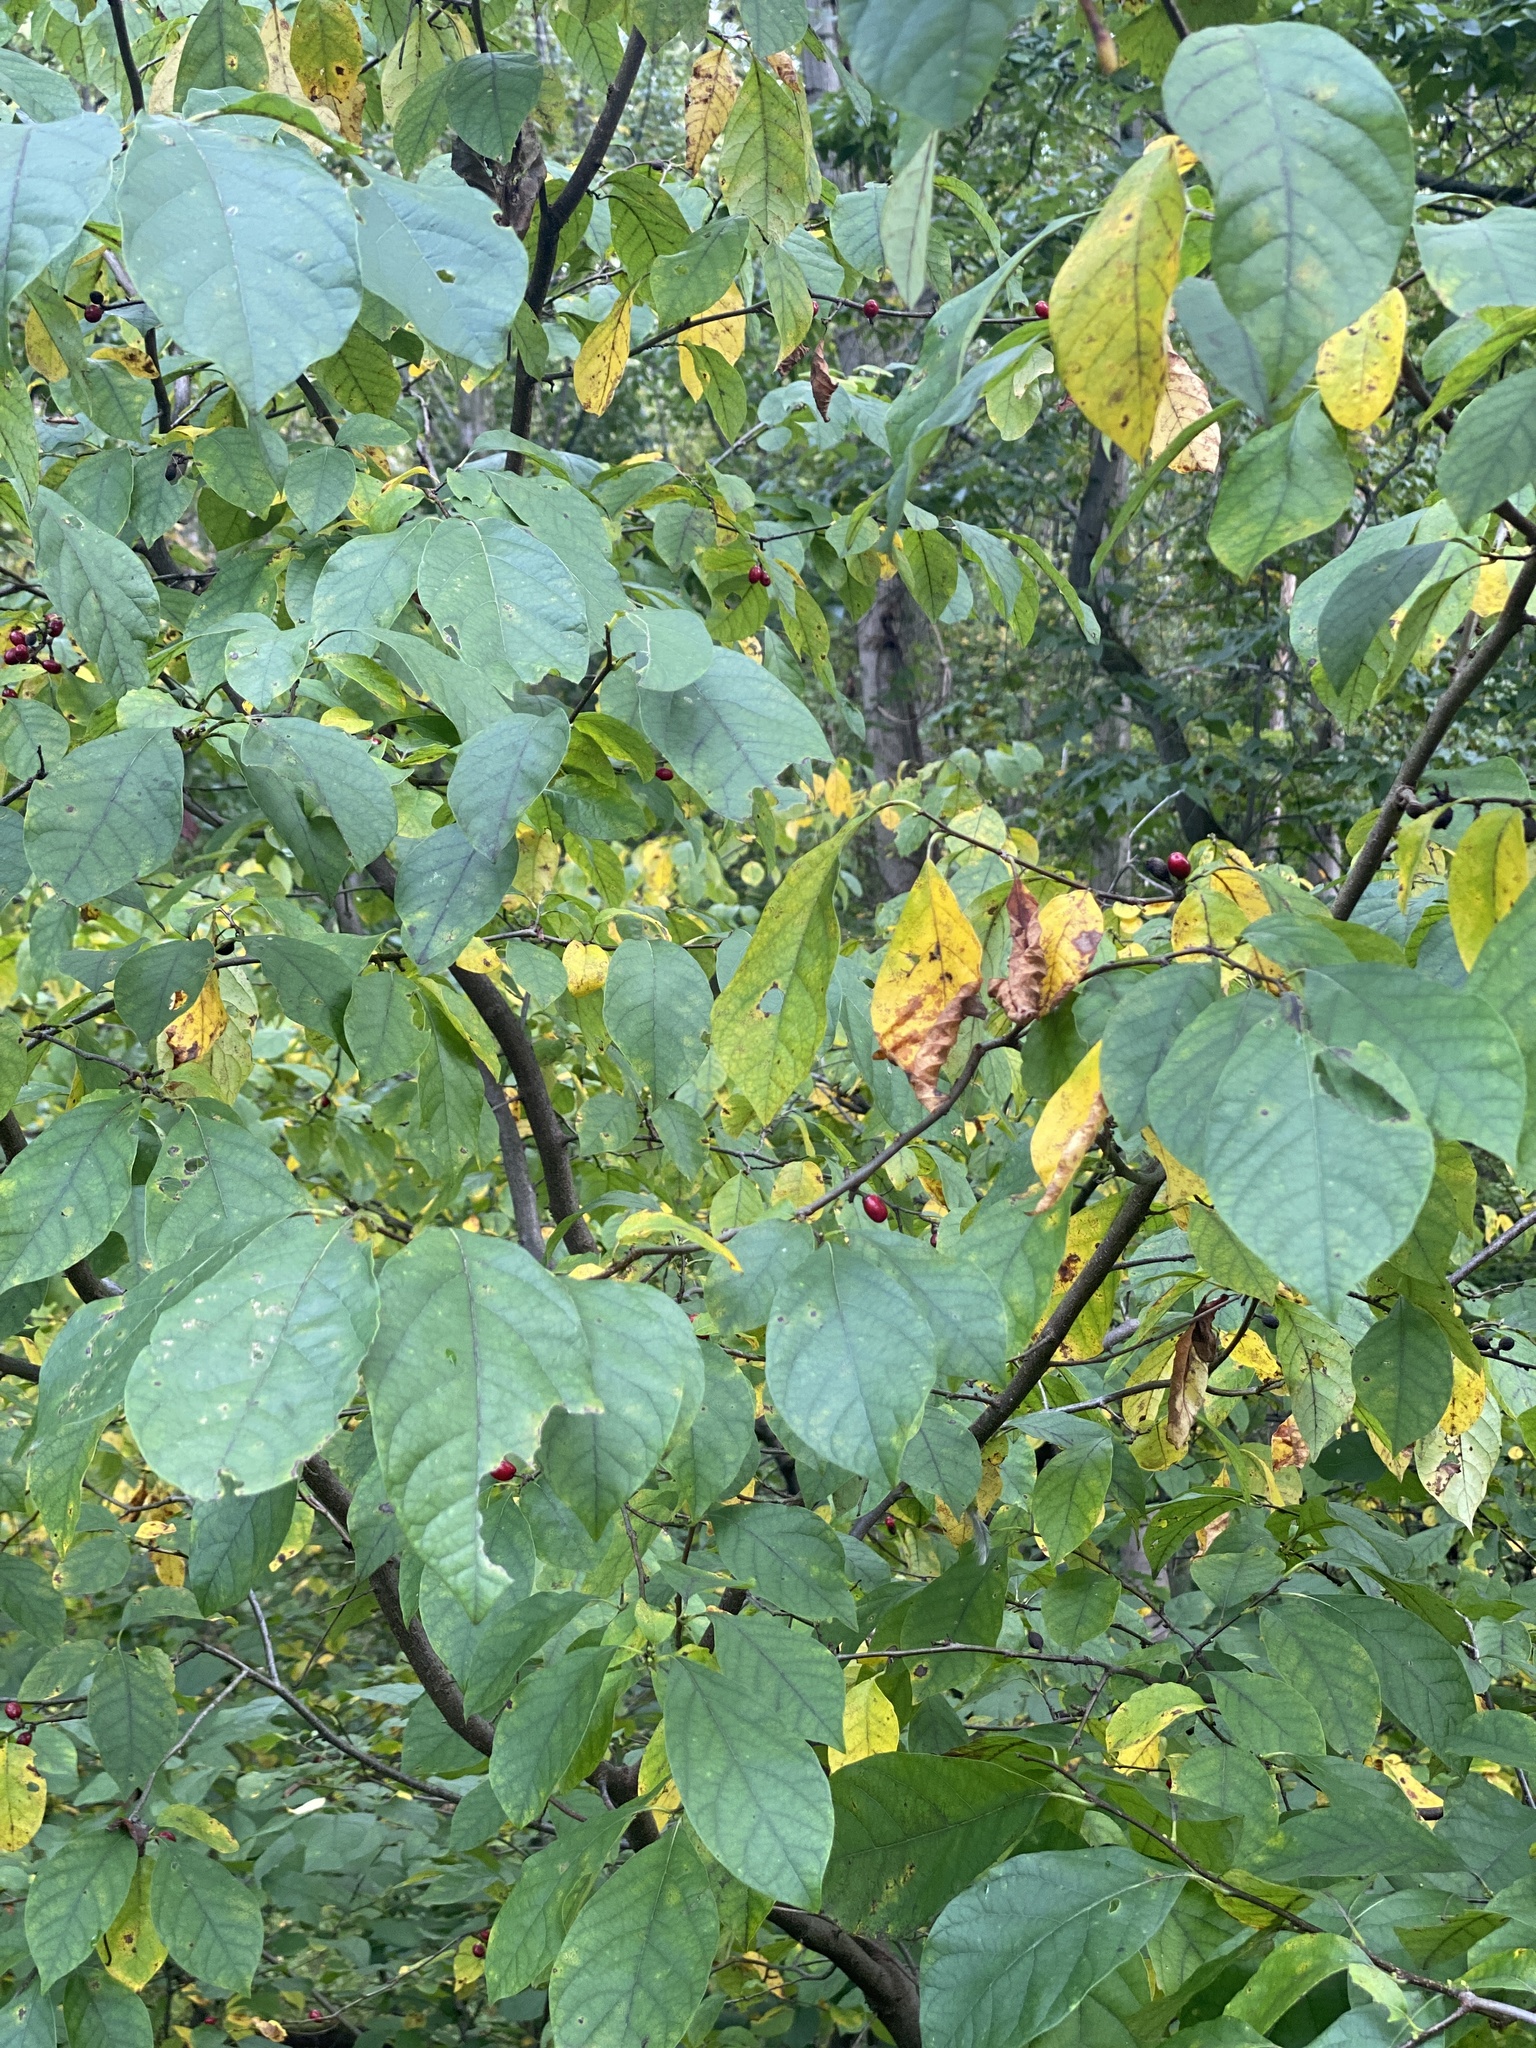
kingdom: Plantae
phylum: Tracheophyta
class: Magnoliopsida
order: Laurales
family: Lauraceae
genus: Lindera
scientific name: Lindera benzoin
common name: Spicebush
